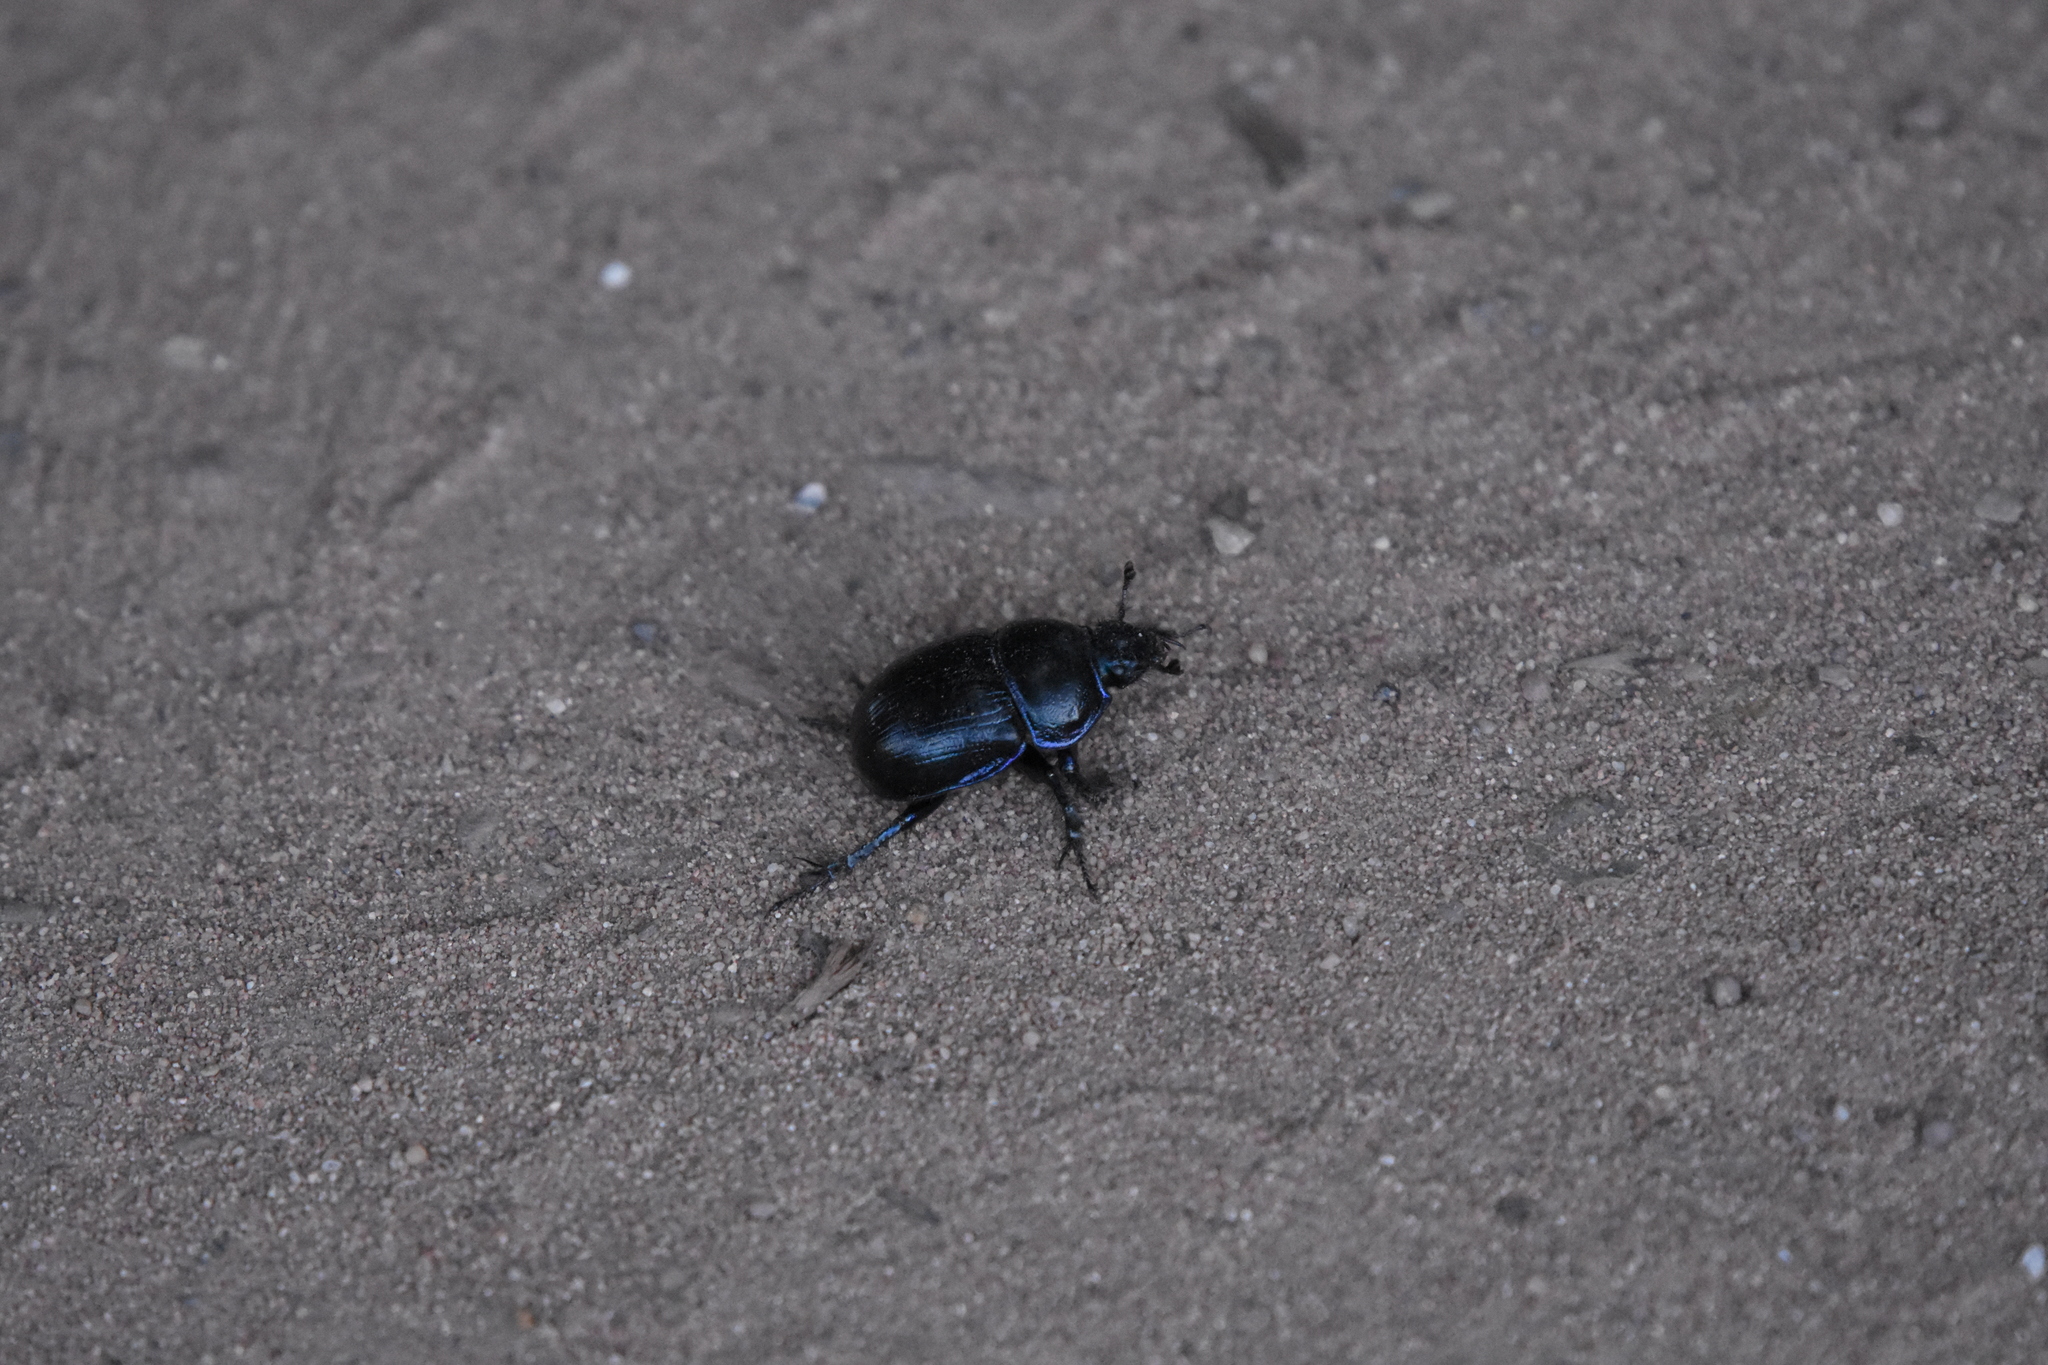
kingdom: Animalia
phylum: Arthropoda
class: Insecta
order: Coleoptera
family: Geotrupidae
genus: Anoplotrupes
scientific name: Anoplotrupes stercorosus
